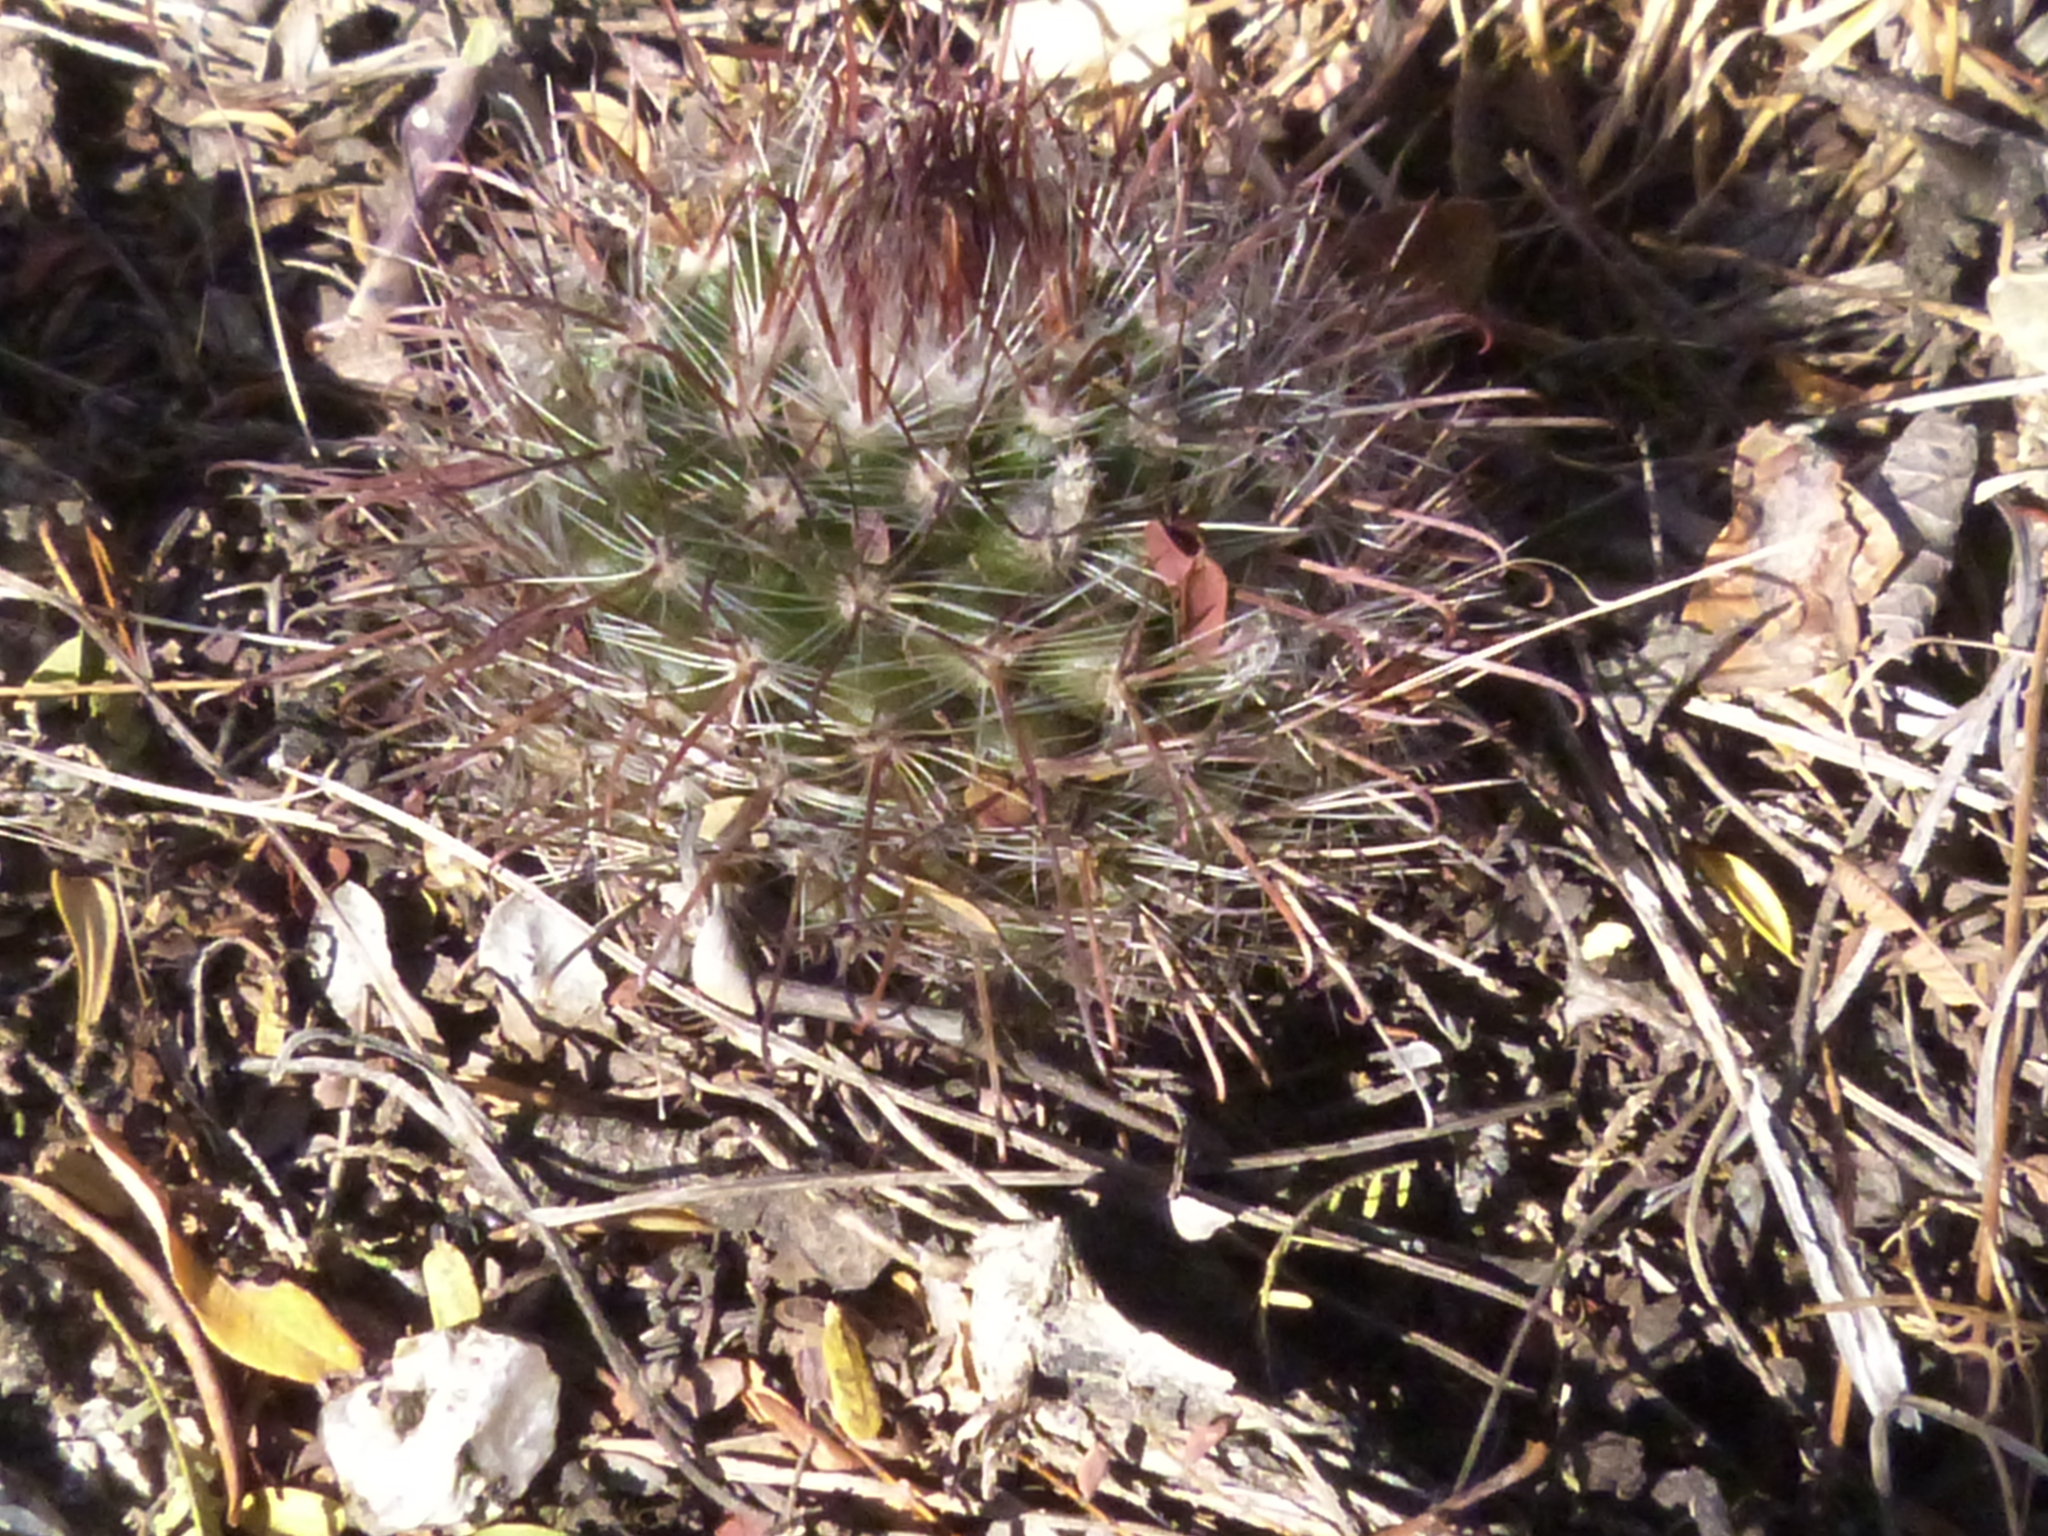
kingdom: Plantae
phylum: Tracheophyta
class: Magnoliopsida
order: Caryophyllales
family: Cactaceae
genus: Parodia
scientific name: Parodia microsperma
